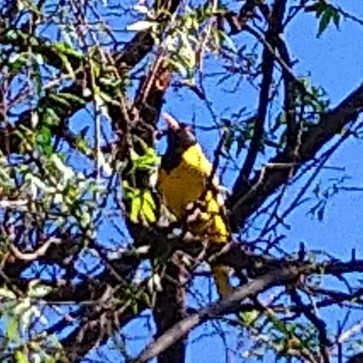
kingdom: Animalia
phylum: Chordata
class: Aves
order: Passeriformes
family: Oriolidae
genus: Oriolus
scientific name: Oriolus larvatus
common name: Black-headed oriole
